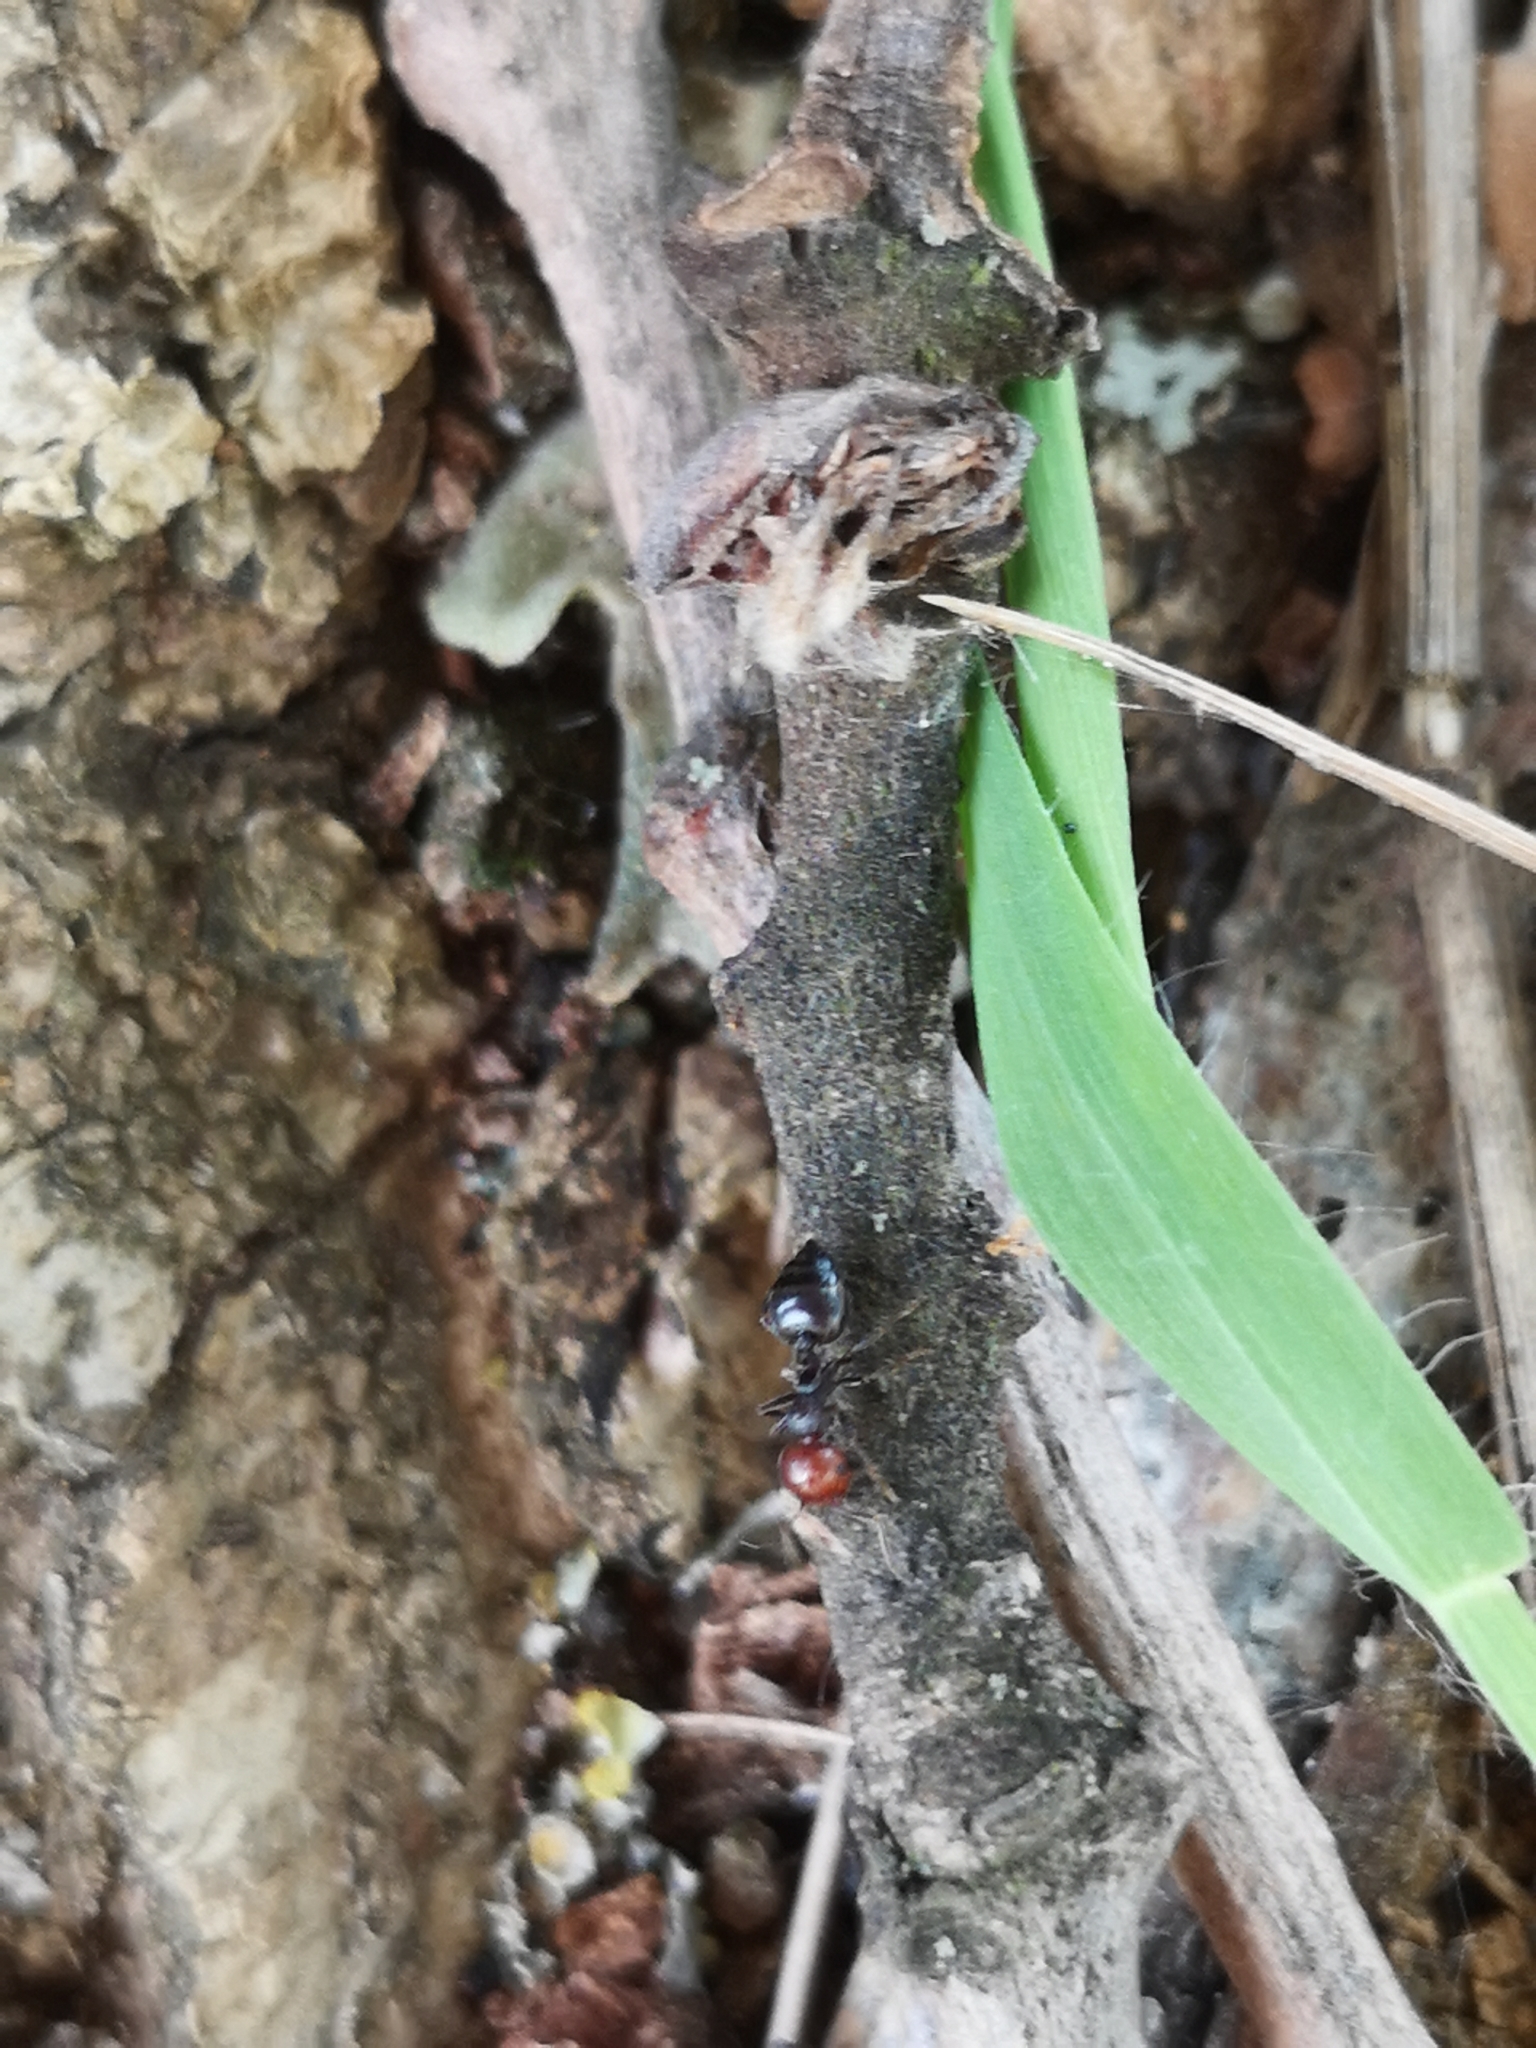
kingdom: Animalia
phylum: Arthropoda
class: Insecta
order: Hymenoptera
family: Formicidae
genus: Crematogaster
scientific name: Crematogaster scutellaris
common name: Fourmi du liège
